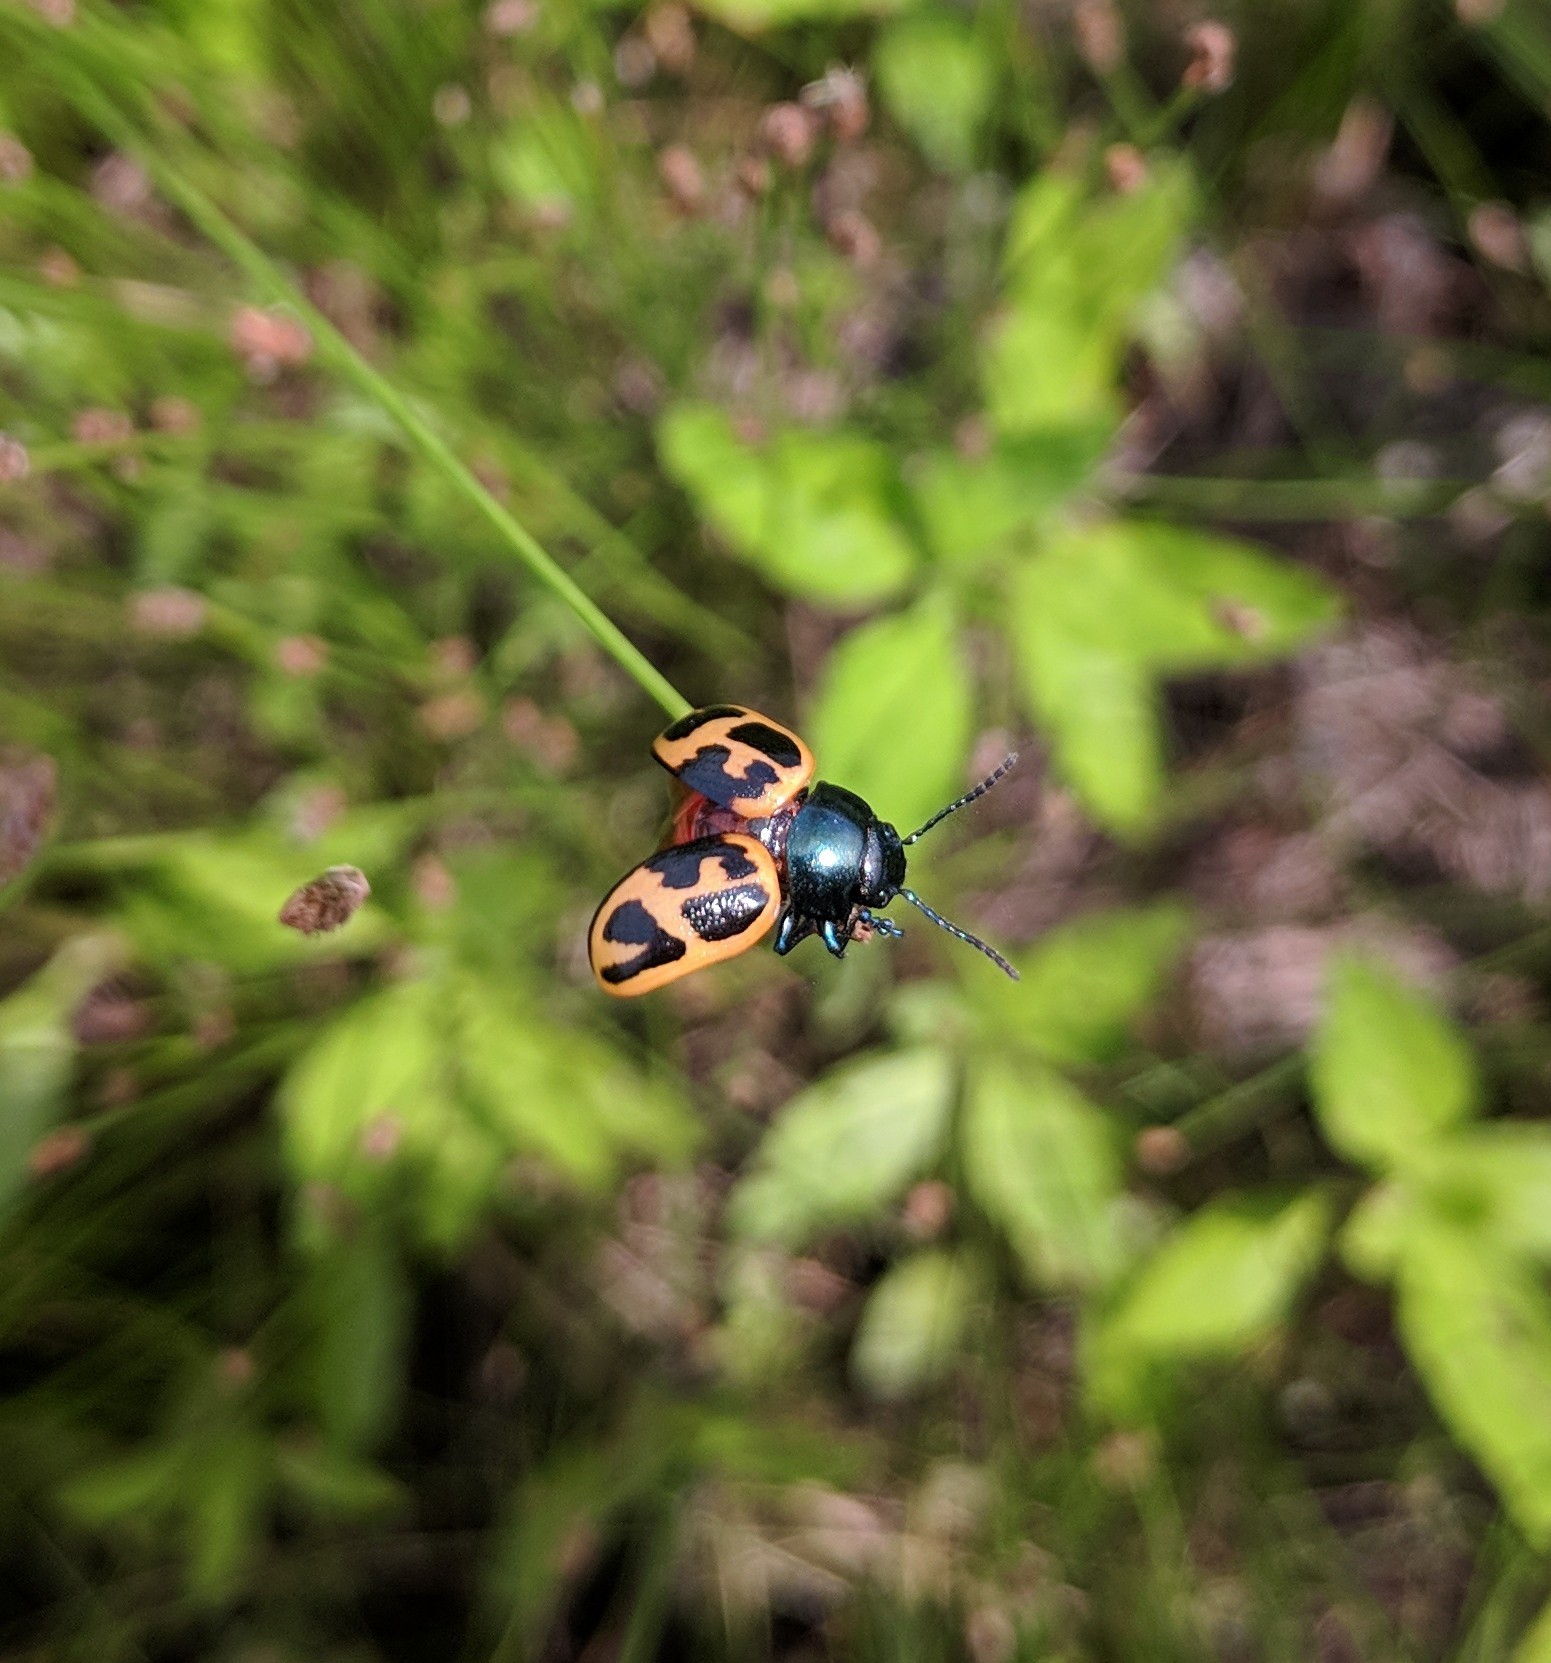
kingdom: Animalia
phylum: Arthropoda
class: Insecta
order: Coleoptera
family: Chrysomelidae
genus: Labidomera
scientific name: Labidomera clivicollis
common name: Swamp milkweed leaf beetle
